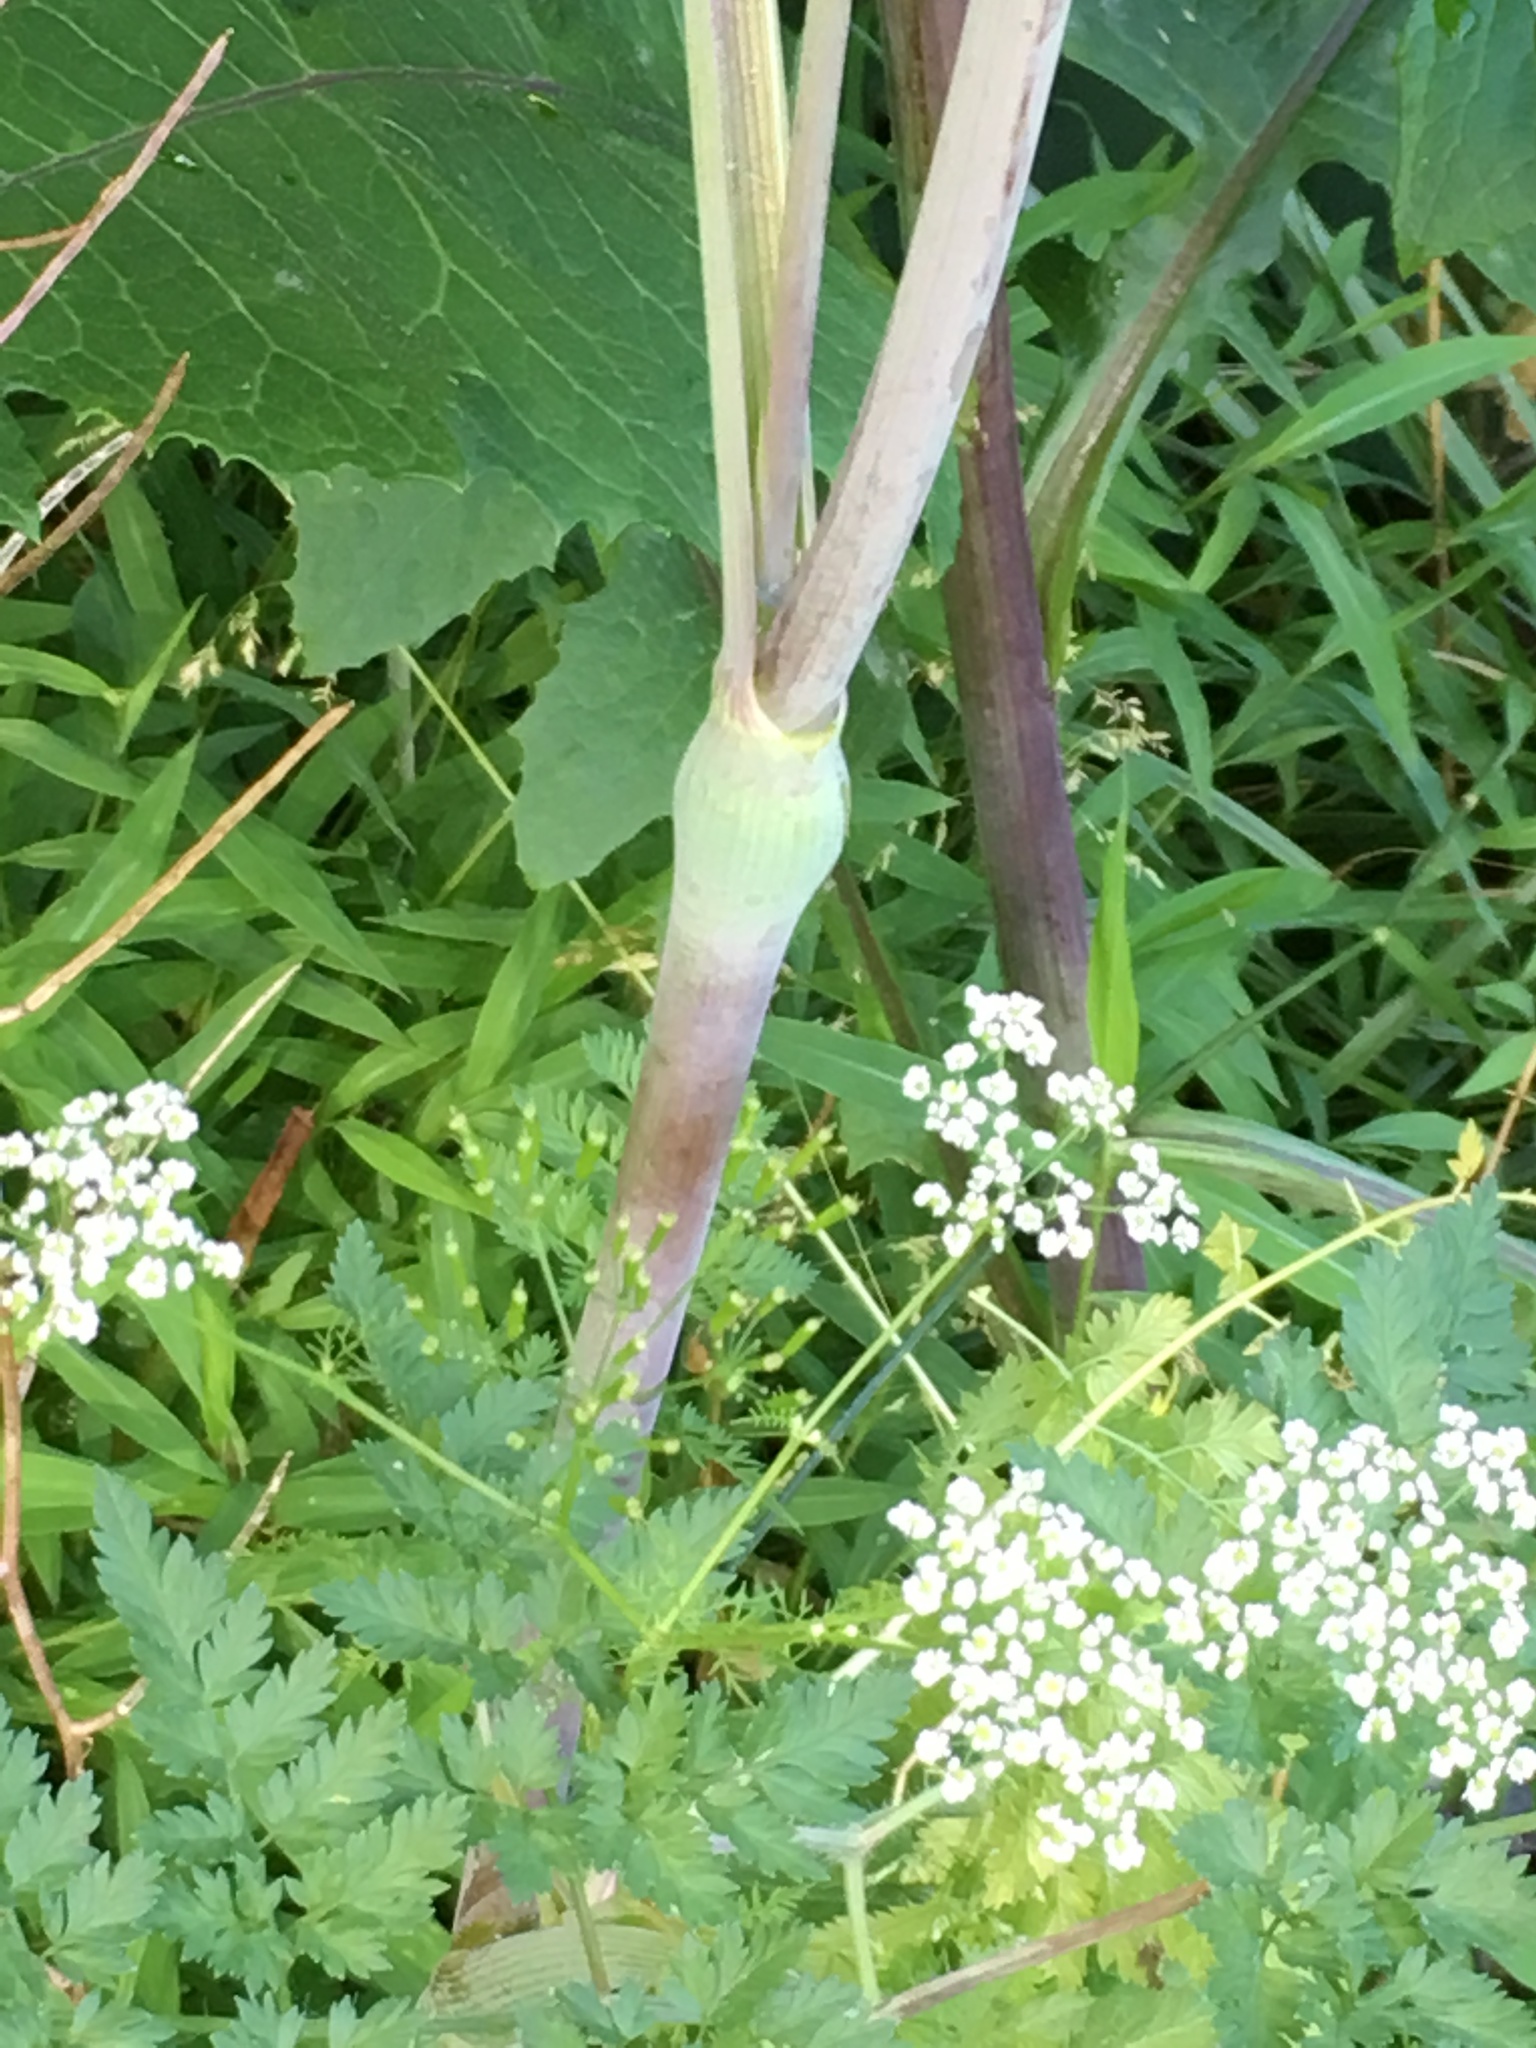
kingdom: Plantae
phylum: Tracheophyta
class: Magnoliopsida
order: Apiales
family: Apiaceae
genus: Conium
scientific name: Conium maculatum
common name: Hemlock
